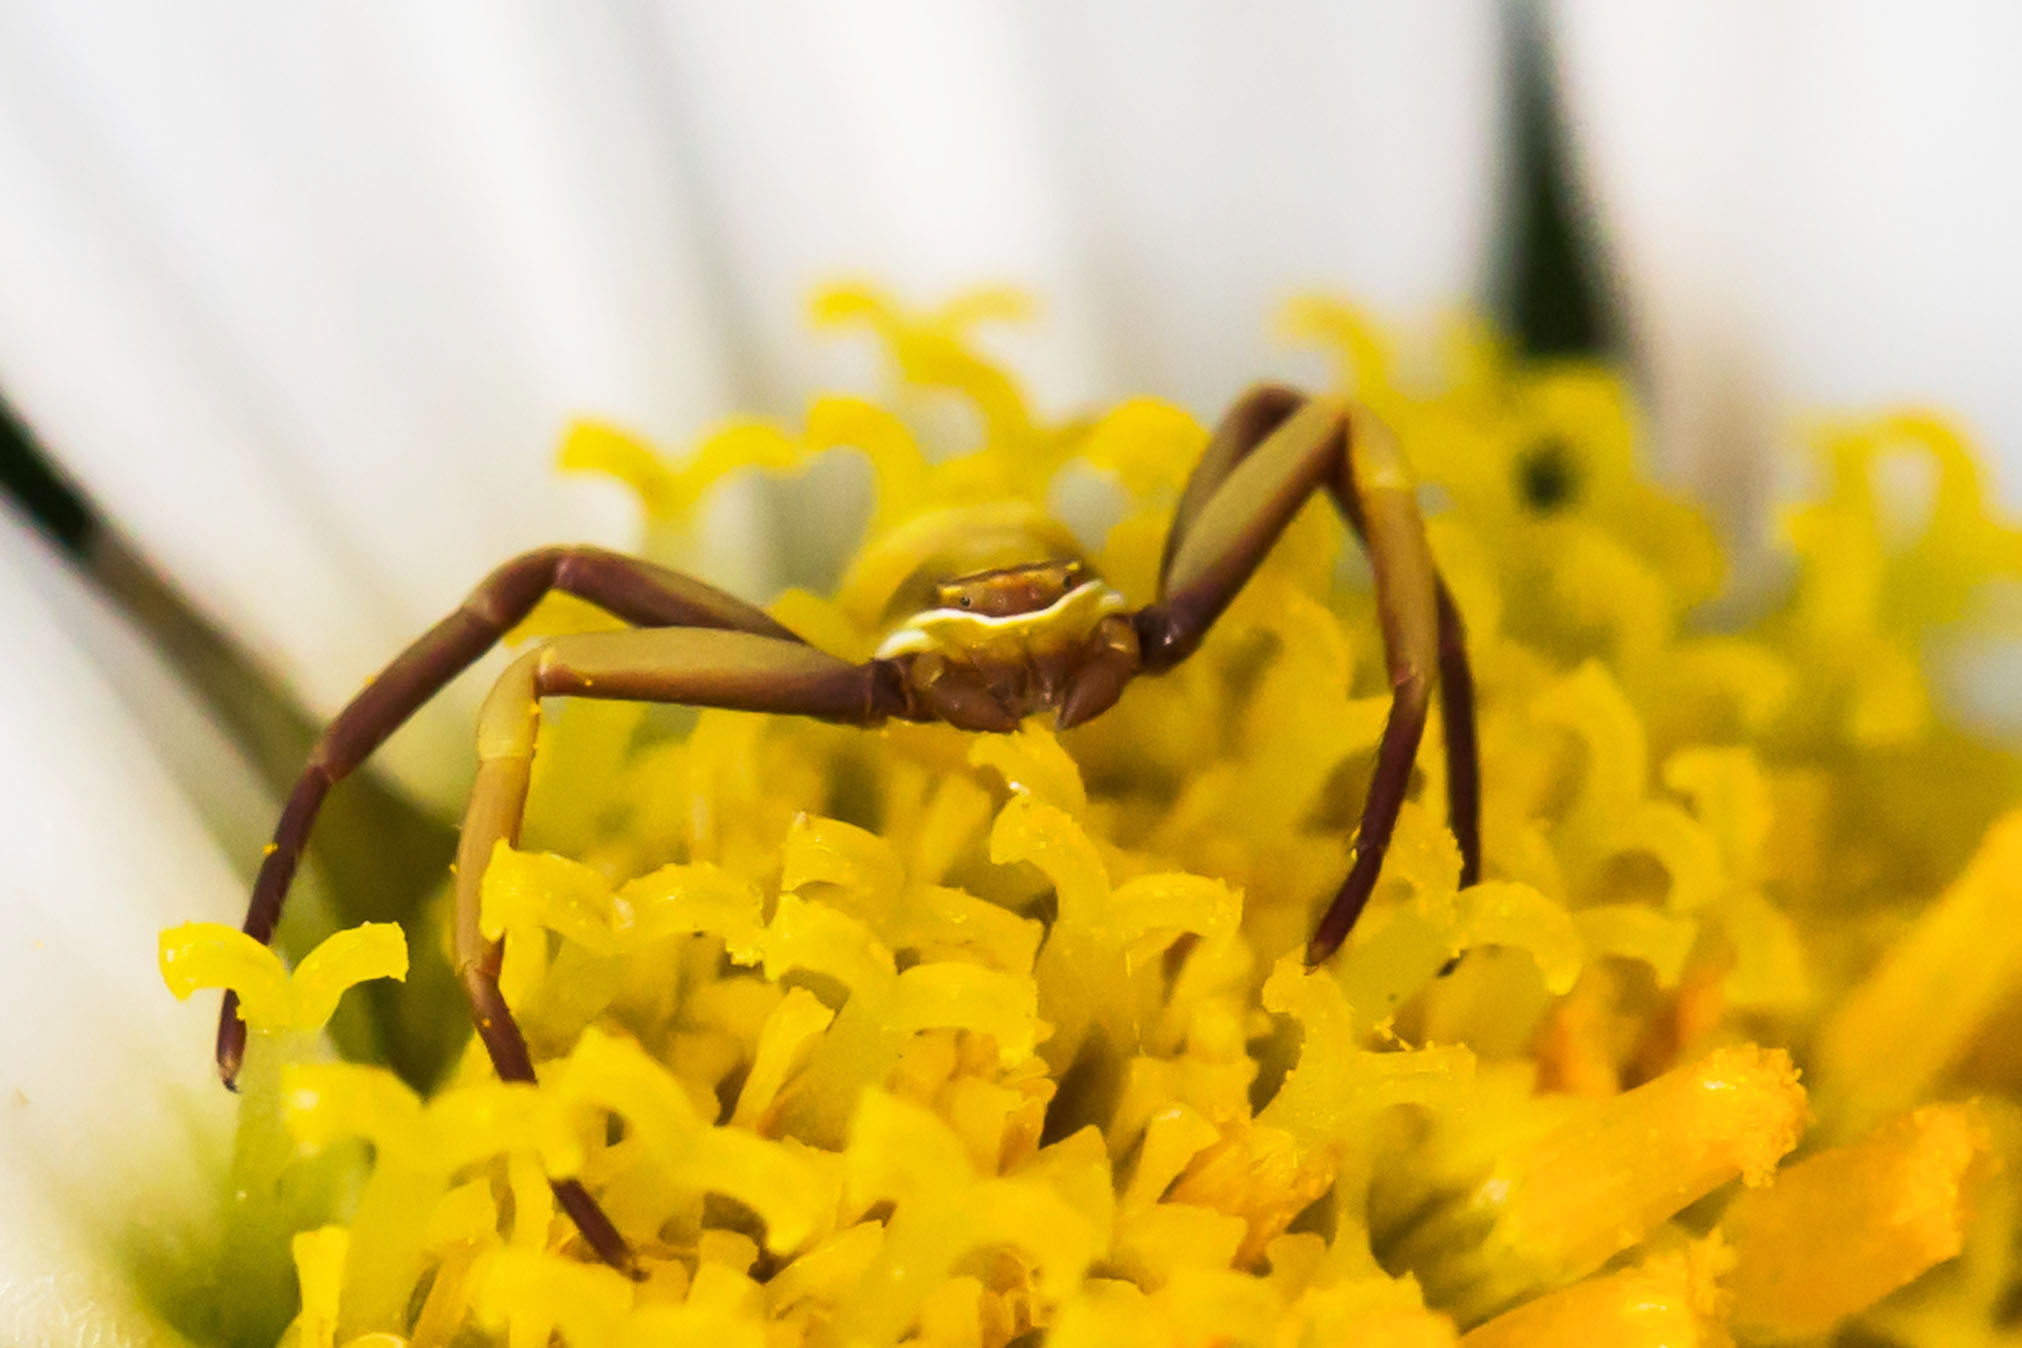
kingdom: Animalia
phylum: Arthropoda
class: Arachnida
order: Araneae
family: Thomisidae
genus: Misumenoides
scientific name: Misumenoides formosipes
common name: White-banded crab spider
